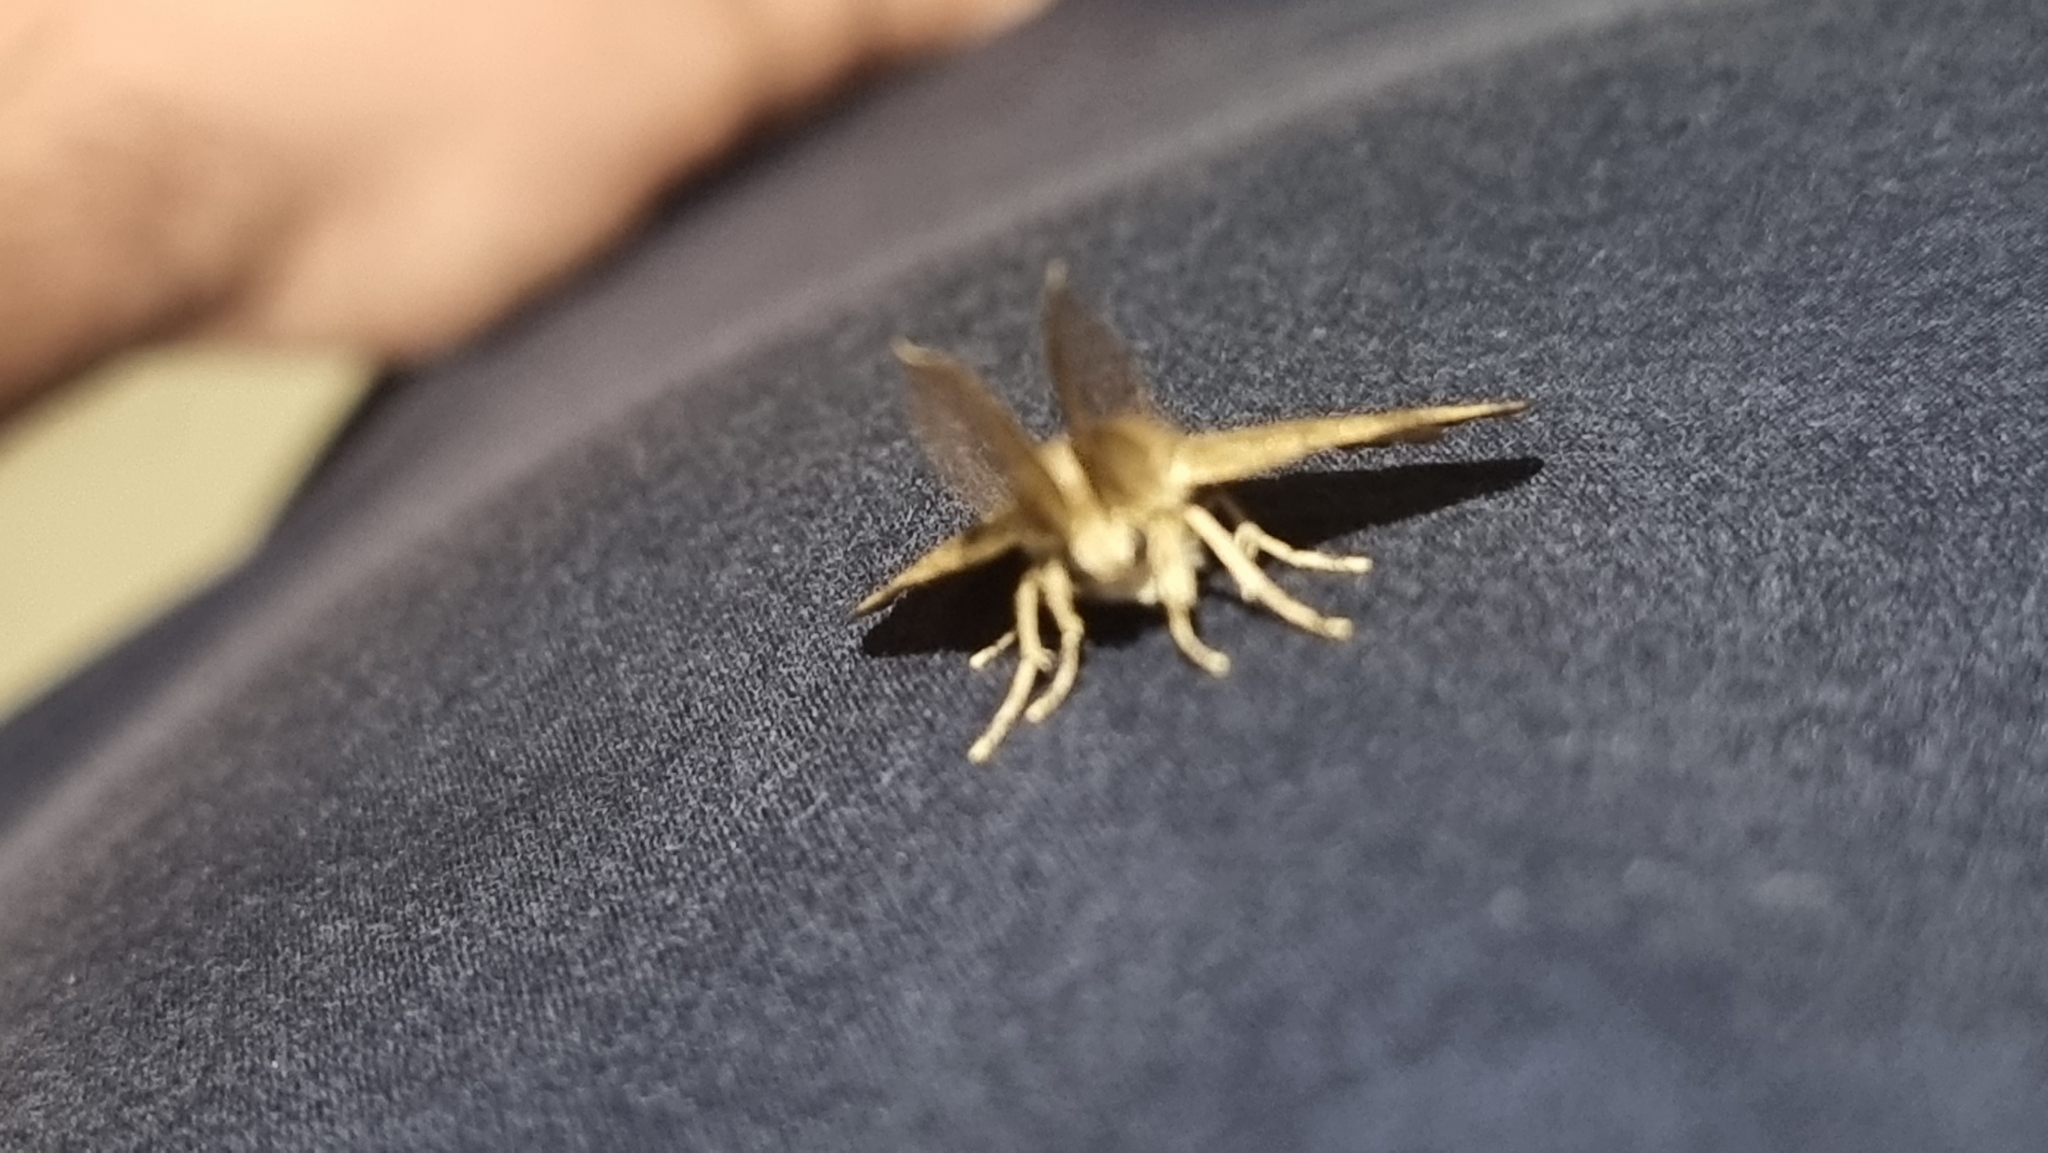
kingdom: Animalia
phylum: Arthropoda
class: Insecta
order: Lepidoptera
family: Erebidae
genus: Lymantria
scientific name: Lymantria dispar
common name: Gypsy moth
